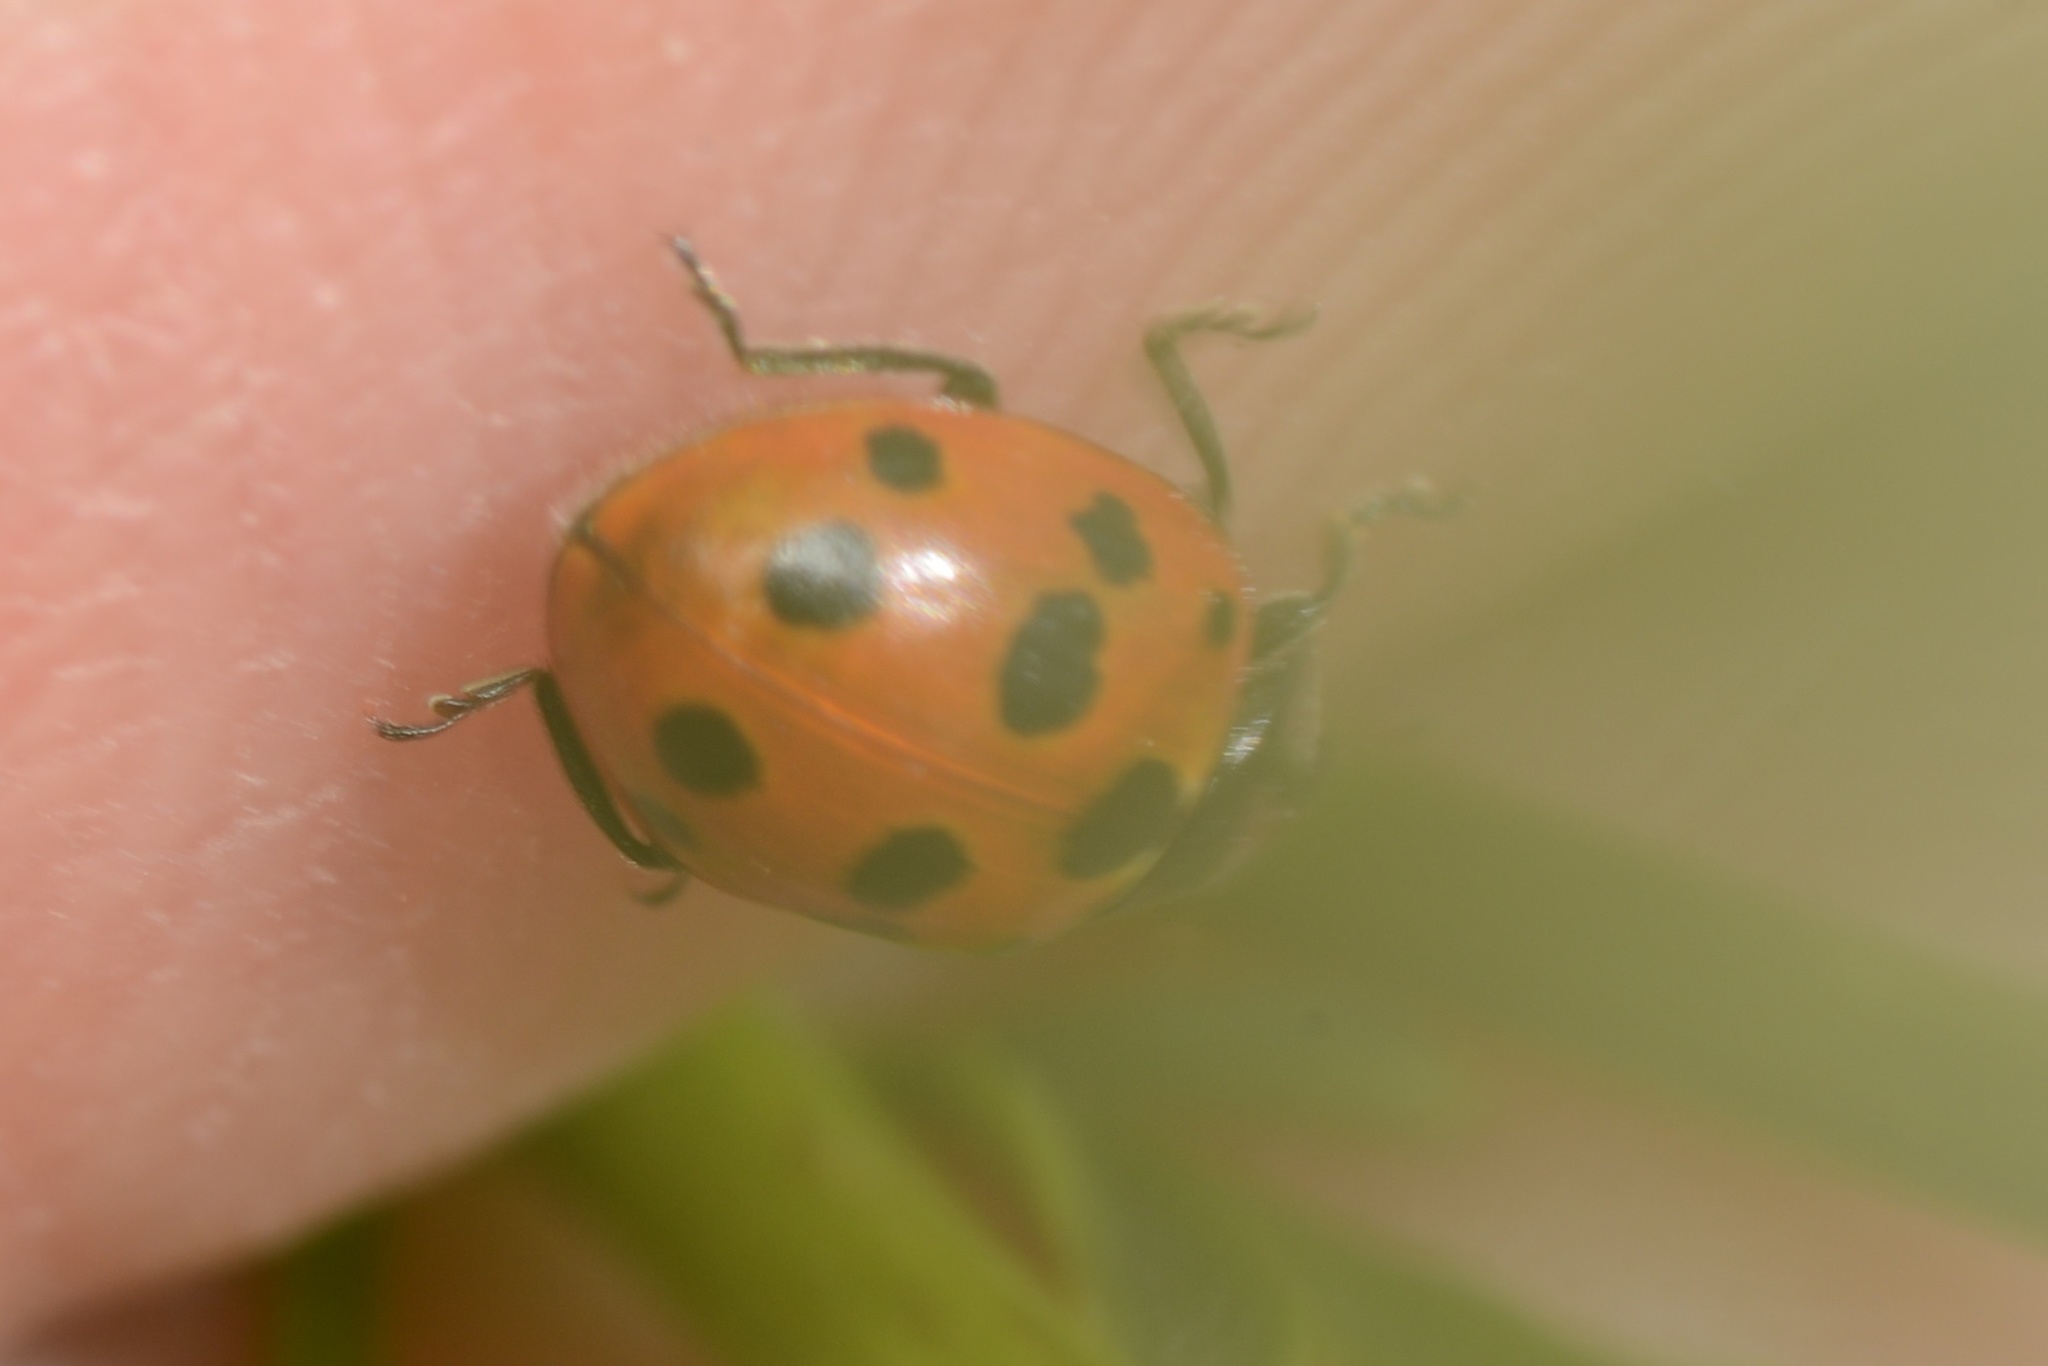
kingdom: Animalia
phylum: Arthropoda
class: Insecta
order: Coleoptera
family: Coccinellidae
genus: Coccinella
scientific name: Coccinella undecimpunctata
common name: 11-spot ladybird
